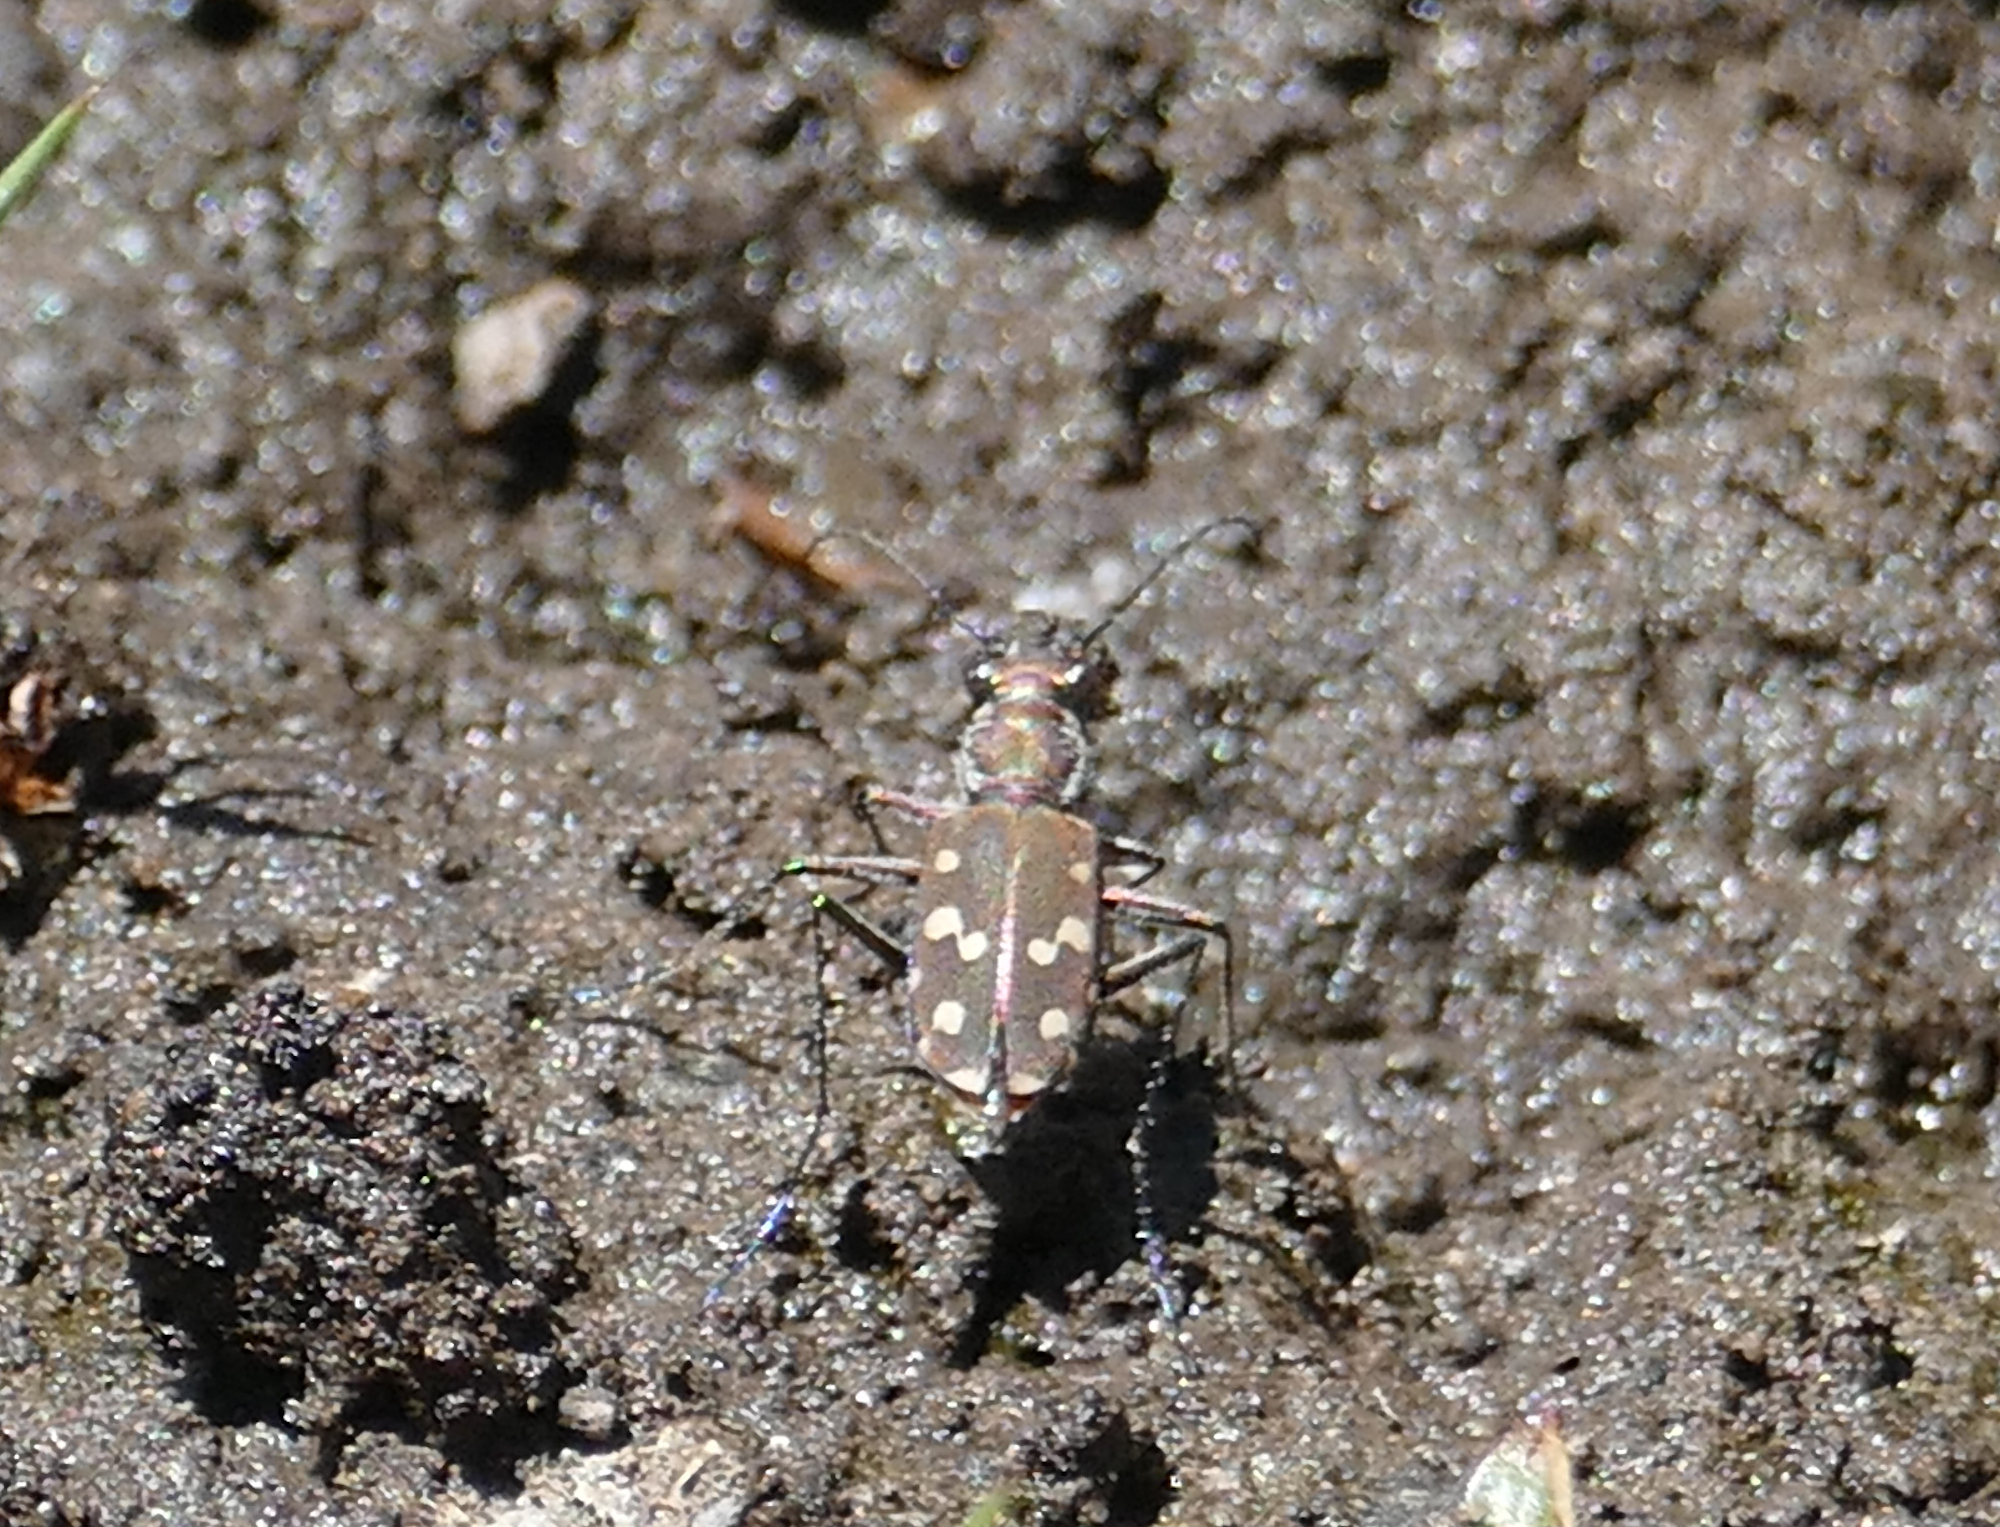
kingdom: Animalia
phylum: Arthropoda
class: Insecta
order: Coleoptera
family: Carabidae
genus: Cicindela
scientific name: Cicindela sedecimpunctata
